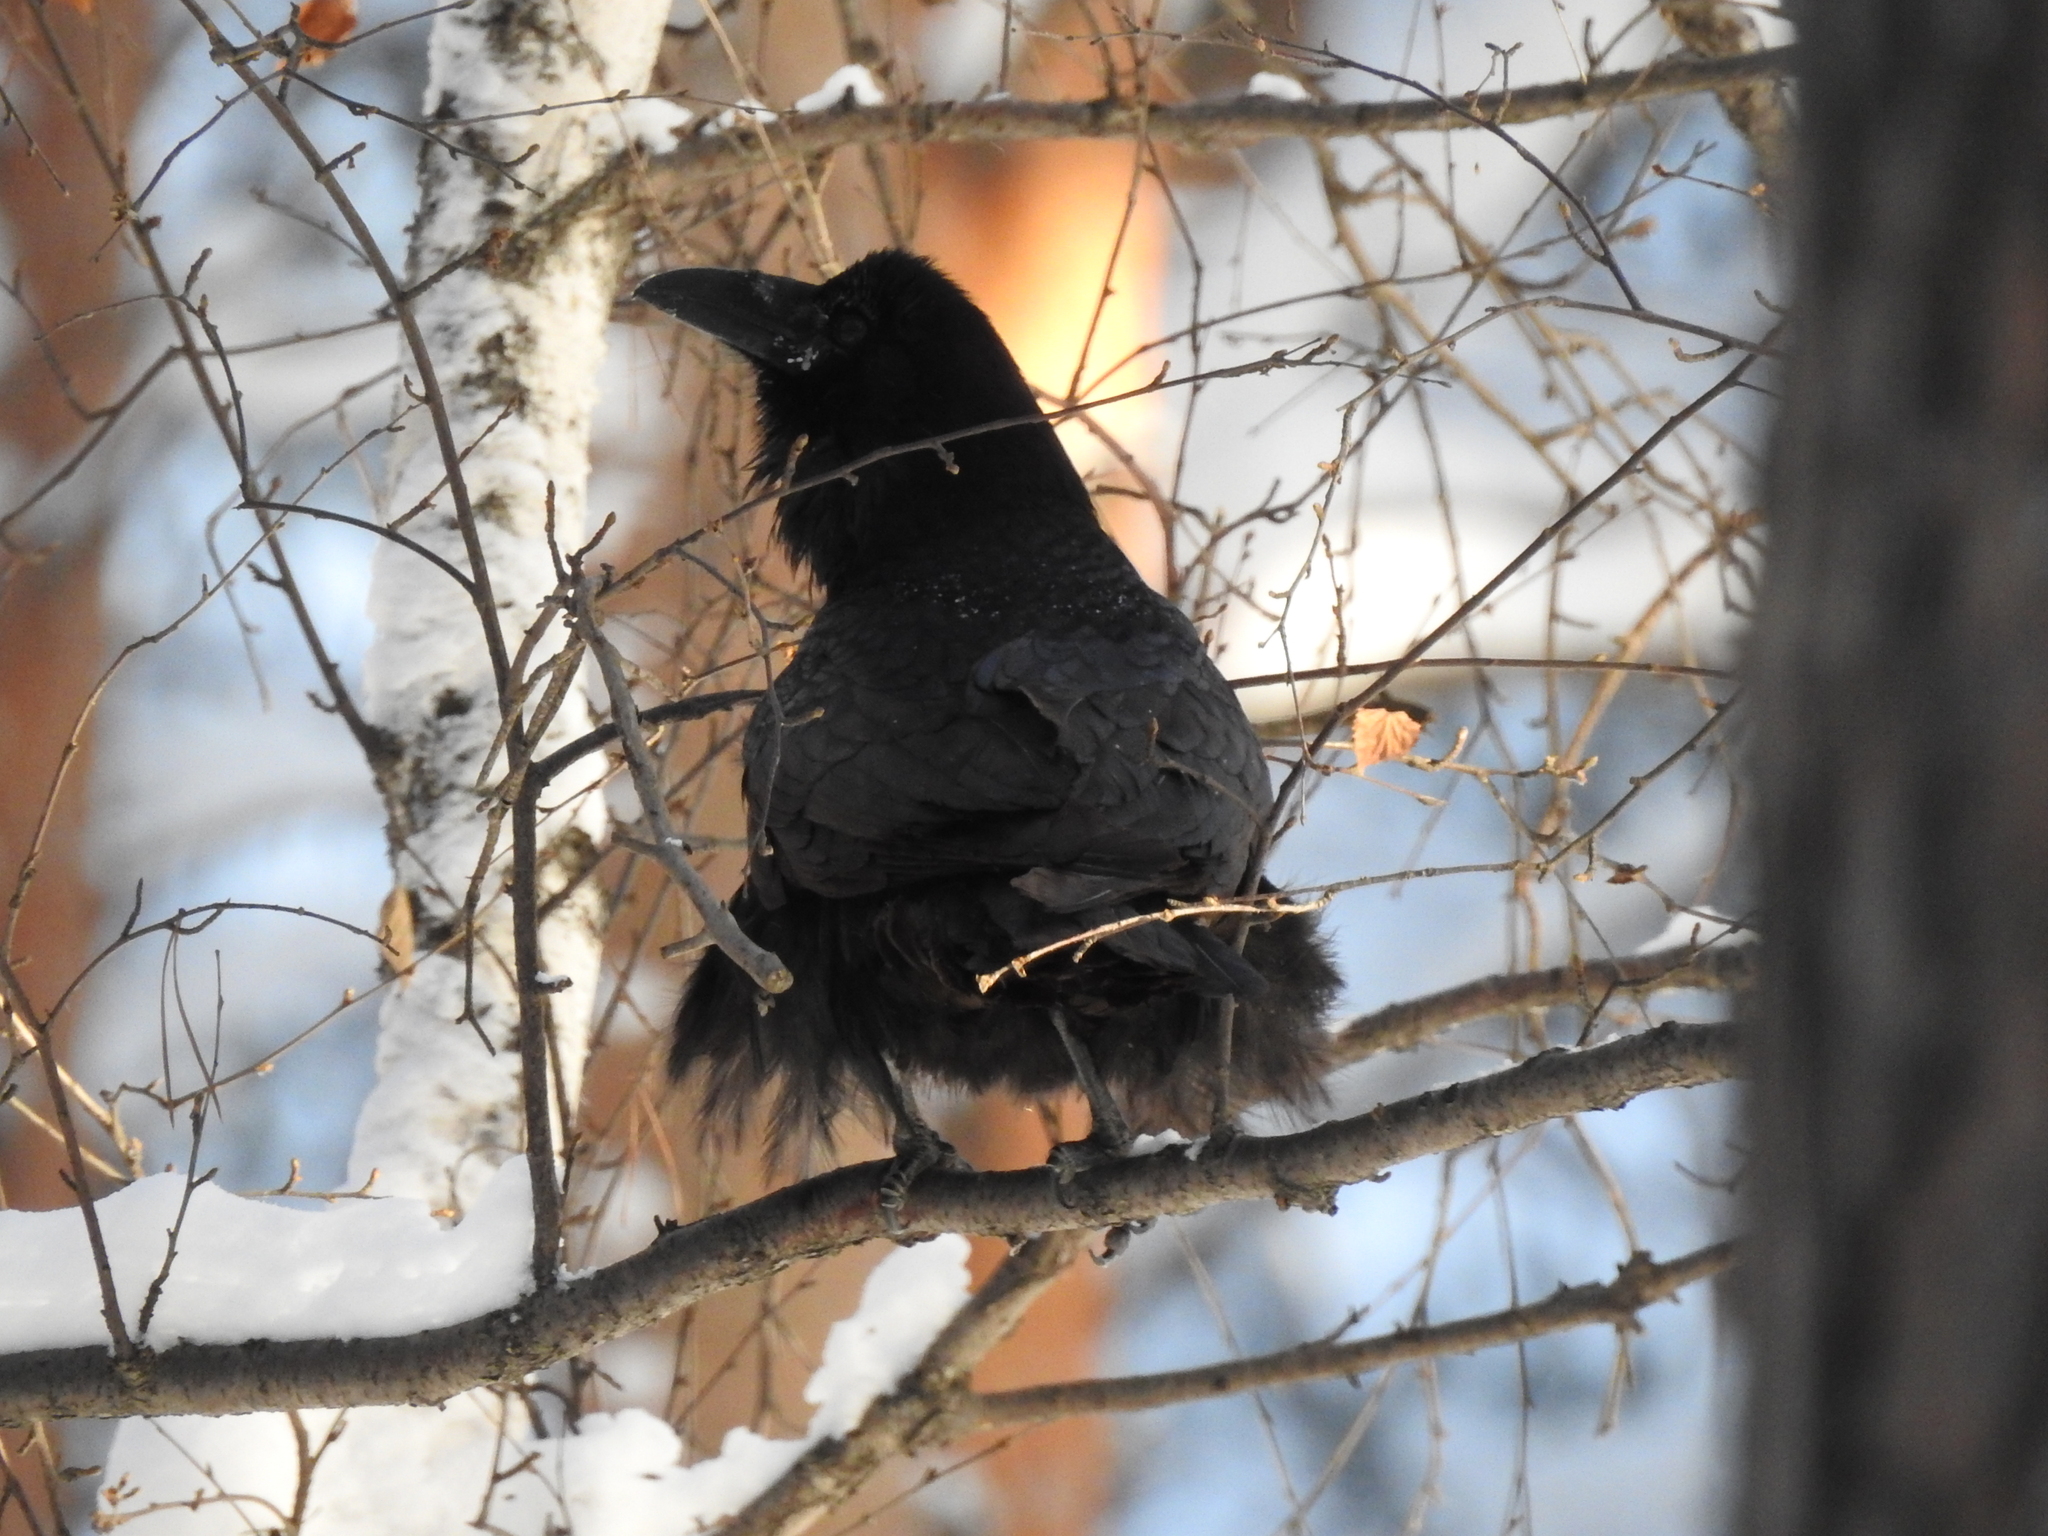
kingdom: Animalia
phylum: Chordata
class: Aves
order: Passeriformes
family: Corvidae
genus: Corvus
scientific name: Corvus corax
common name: Common raven
